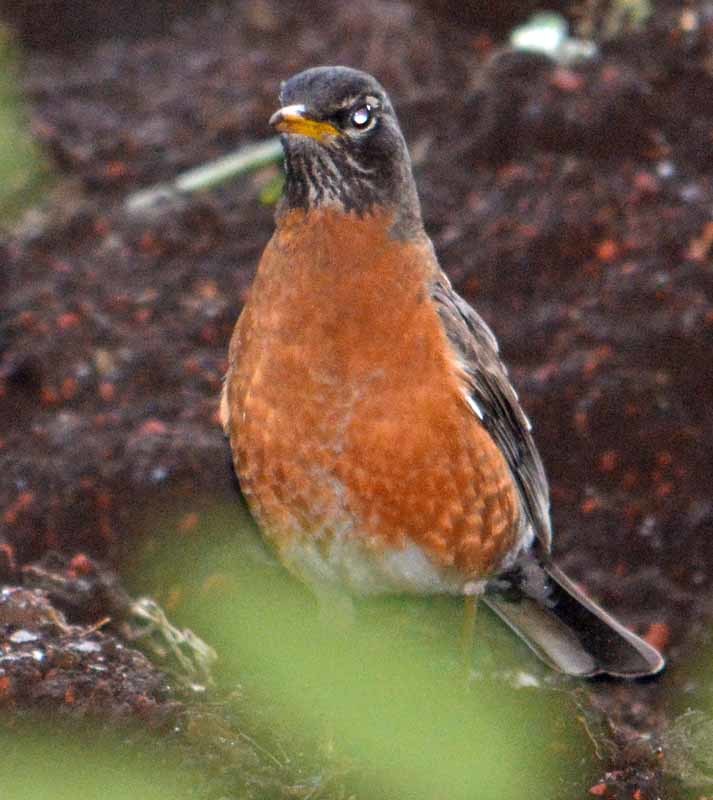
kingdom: Animalia
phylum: Chordata
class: Aves
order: Passeriformes
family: Turdidae
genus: Turdus
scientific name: Turdus migratorius
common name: American robin
